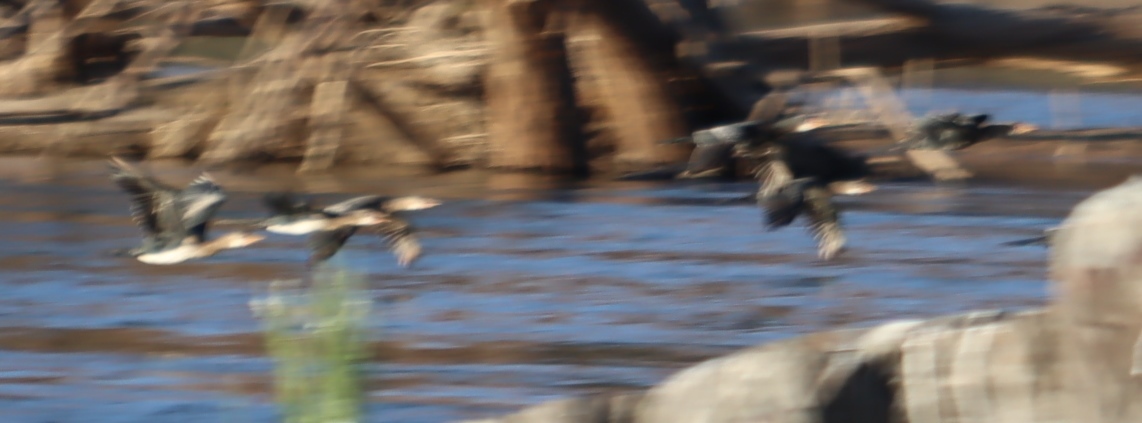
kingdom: Animalia
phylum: Chordata
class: Aves
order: Suliformes
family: Phalacrocoracidae
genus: Microcarbo
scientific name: Microcarbo africanus
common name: Long-tailed cormorant
